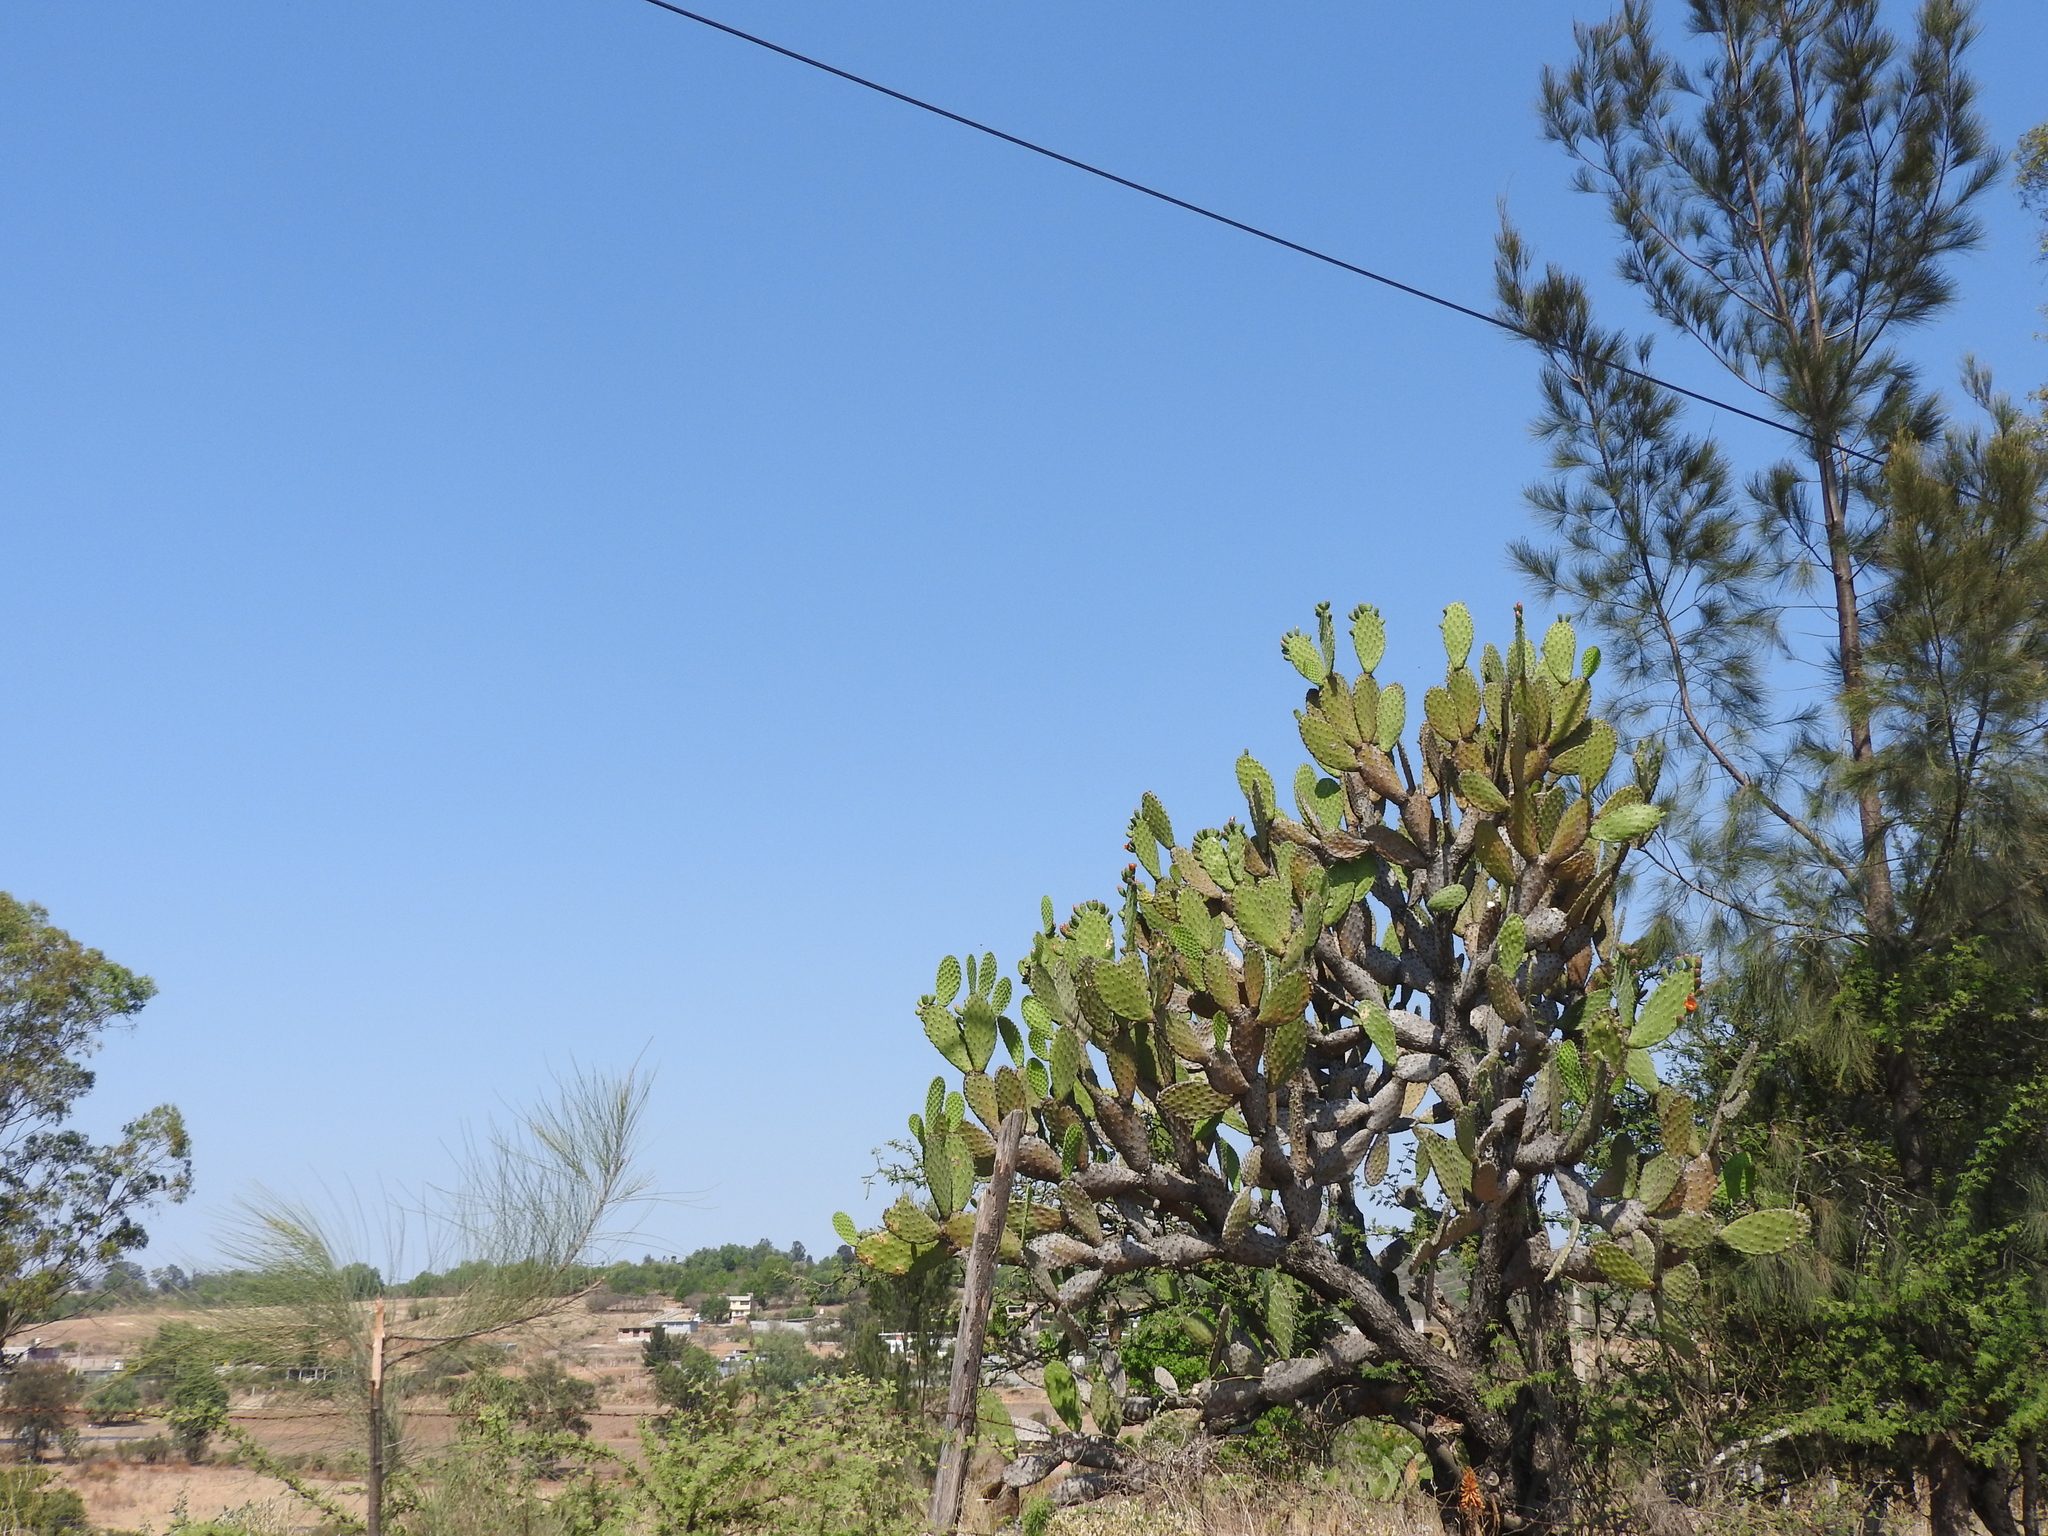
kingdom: Plantae
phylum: Tracheophyta
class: Magnoliopsida
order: Caryophyllales
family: Cactaceae
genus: Opuntia
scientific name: Opuntia jaliscana
